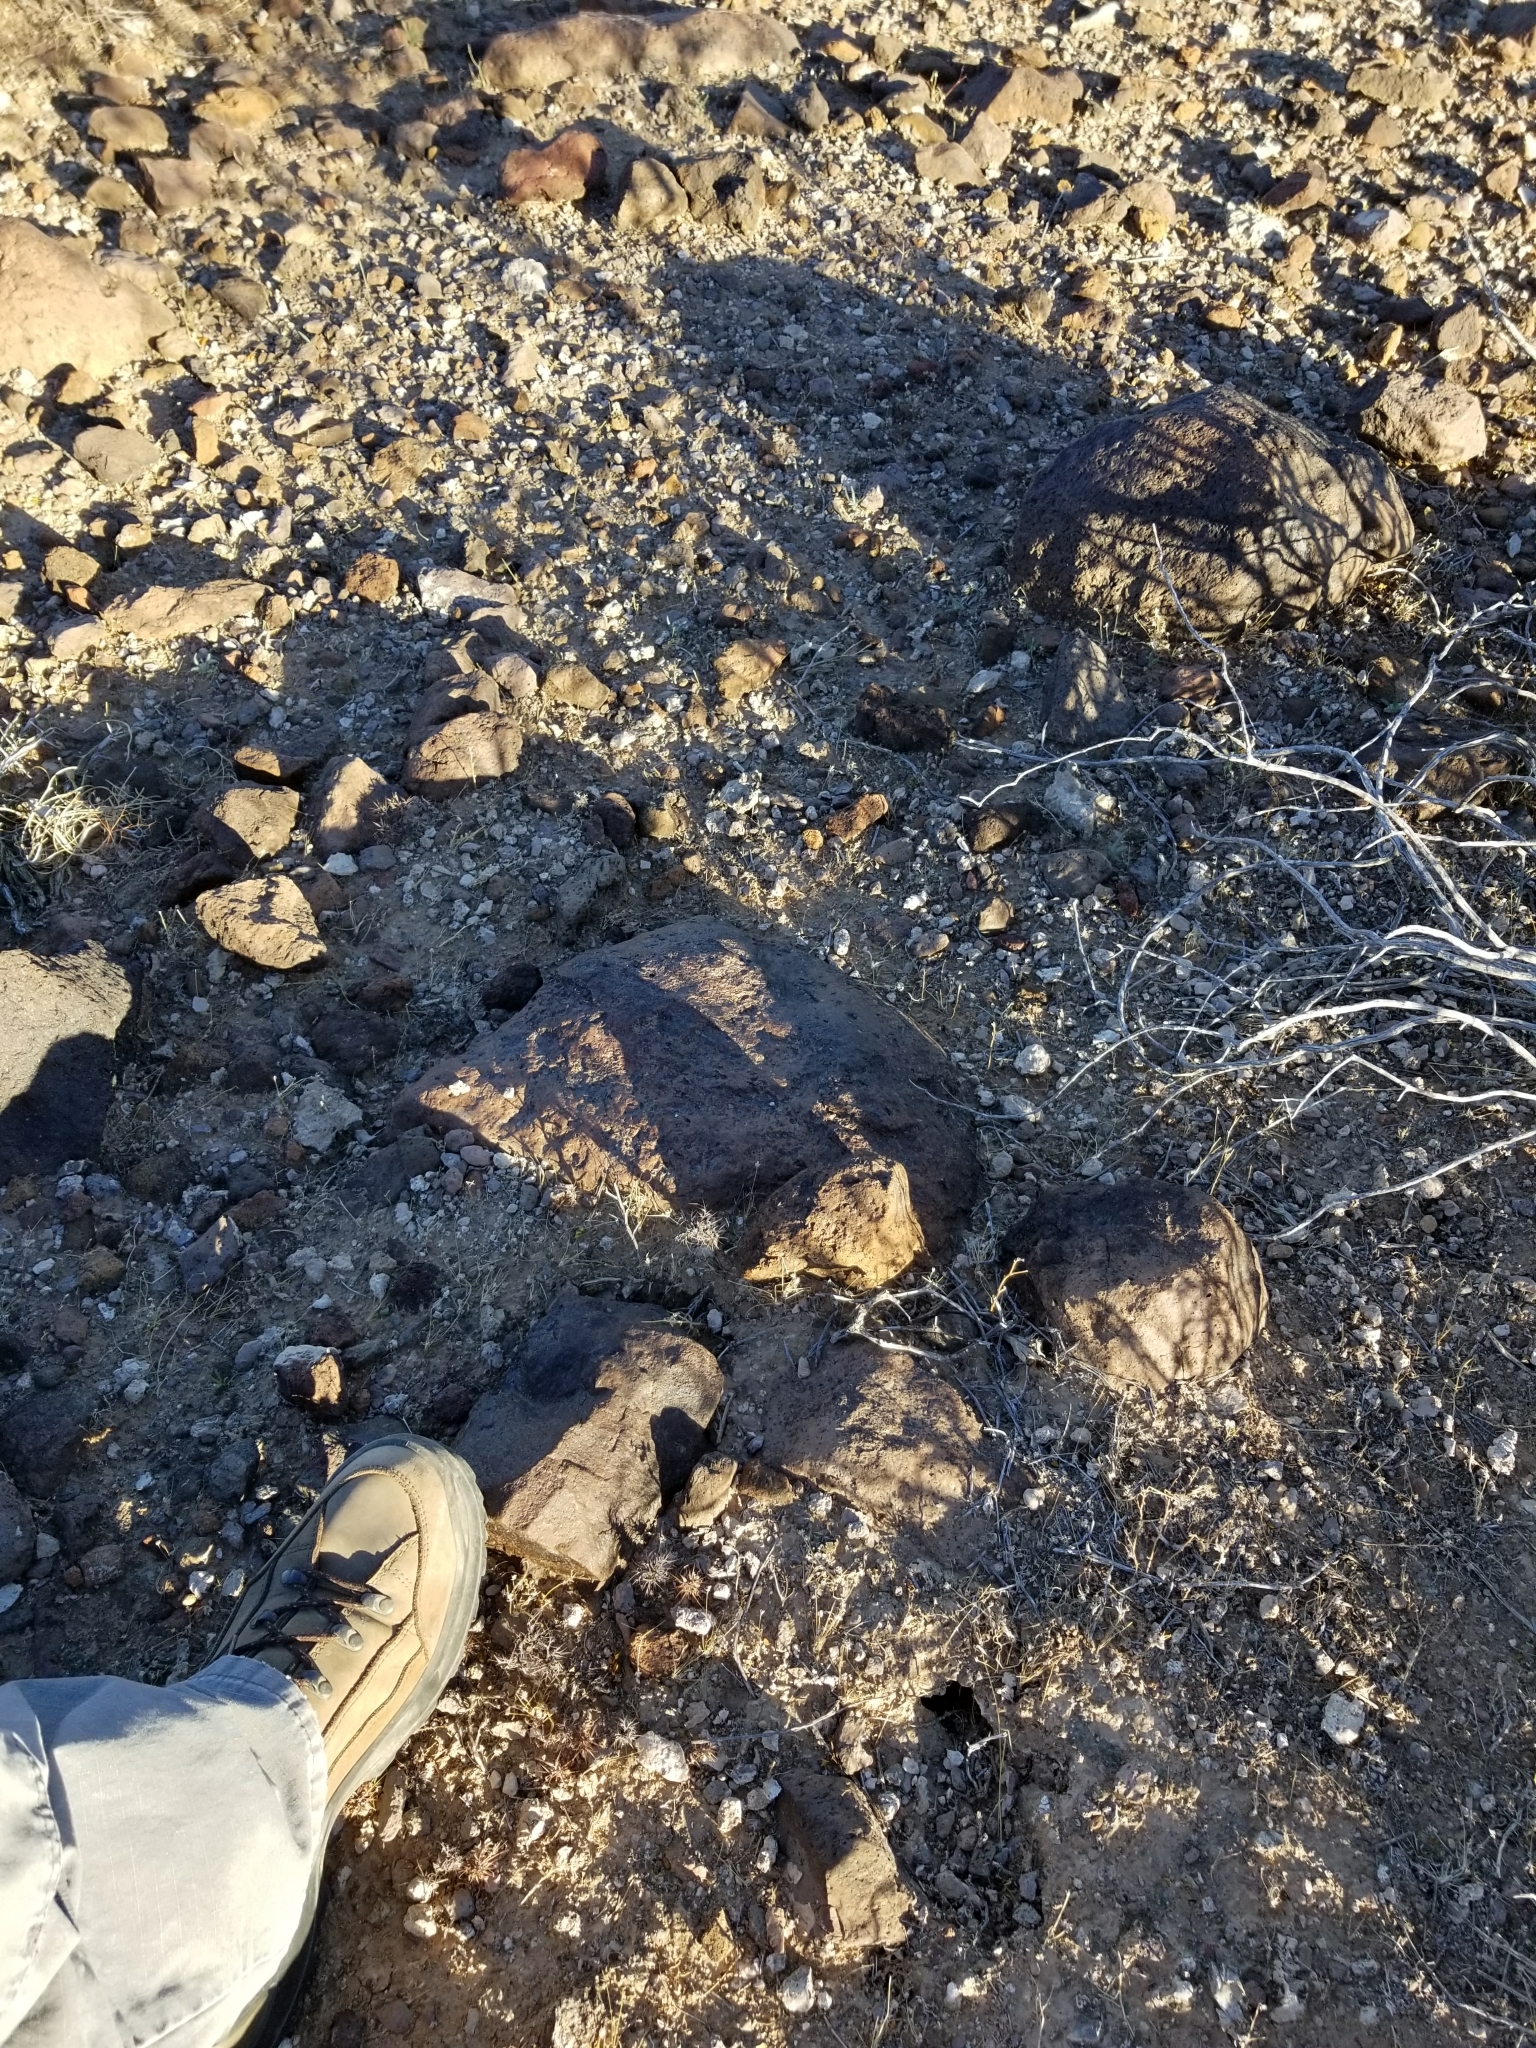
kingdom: Plantae
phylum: Tracheophyta
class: Magnoliopsida
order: Caryophyllales
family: Polygonaceae
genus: Chorizanthe
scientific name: Chorizanthe rigida
